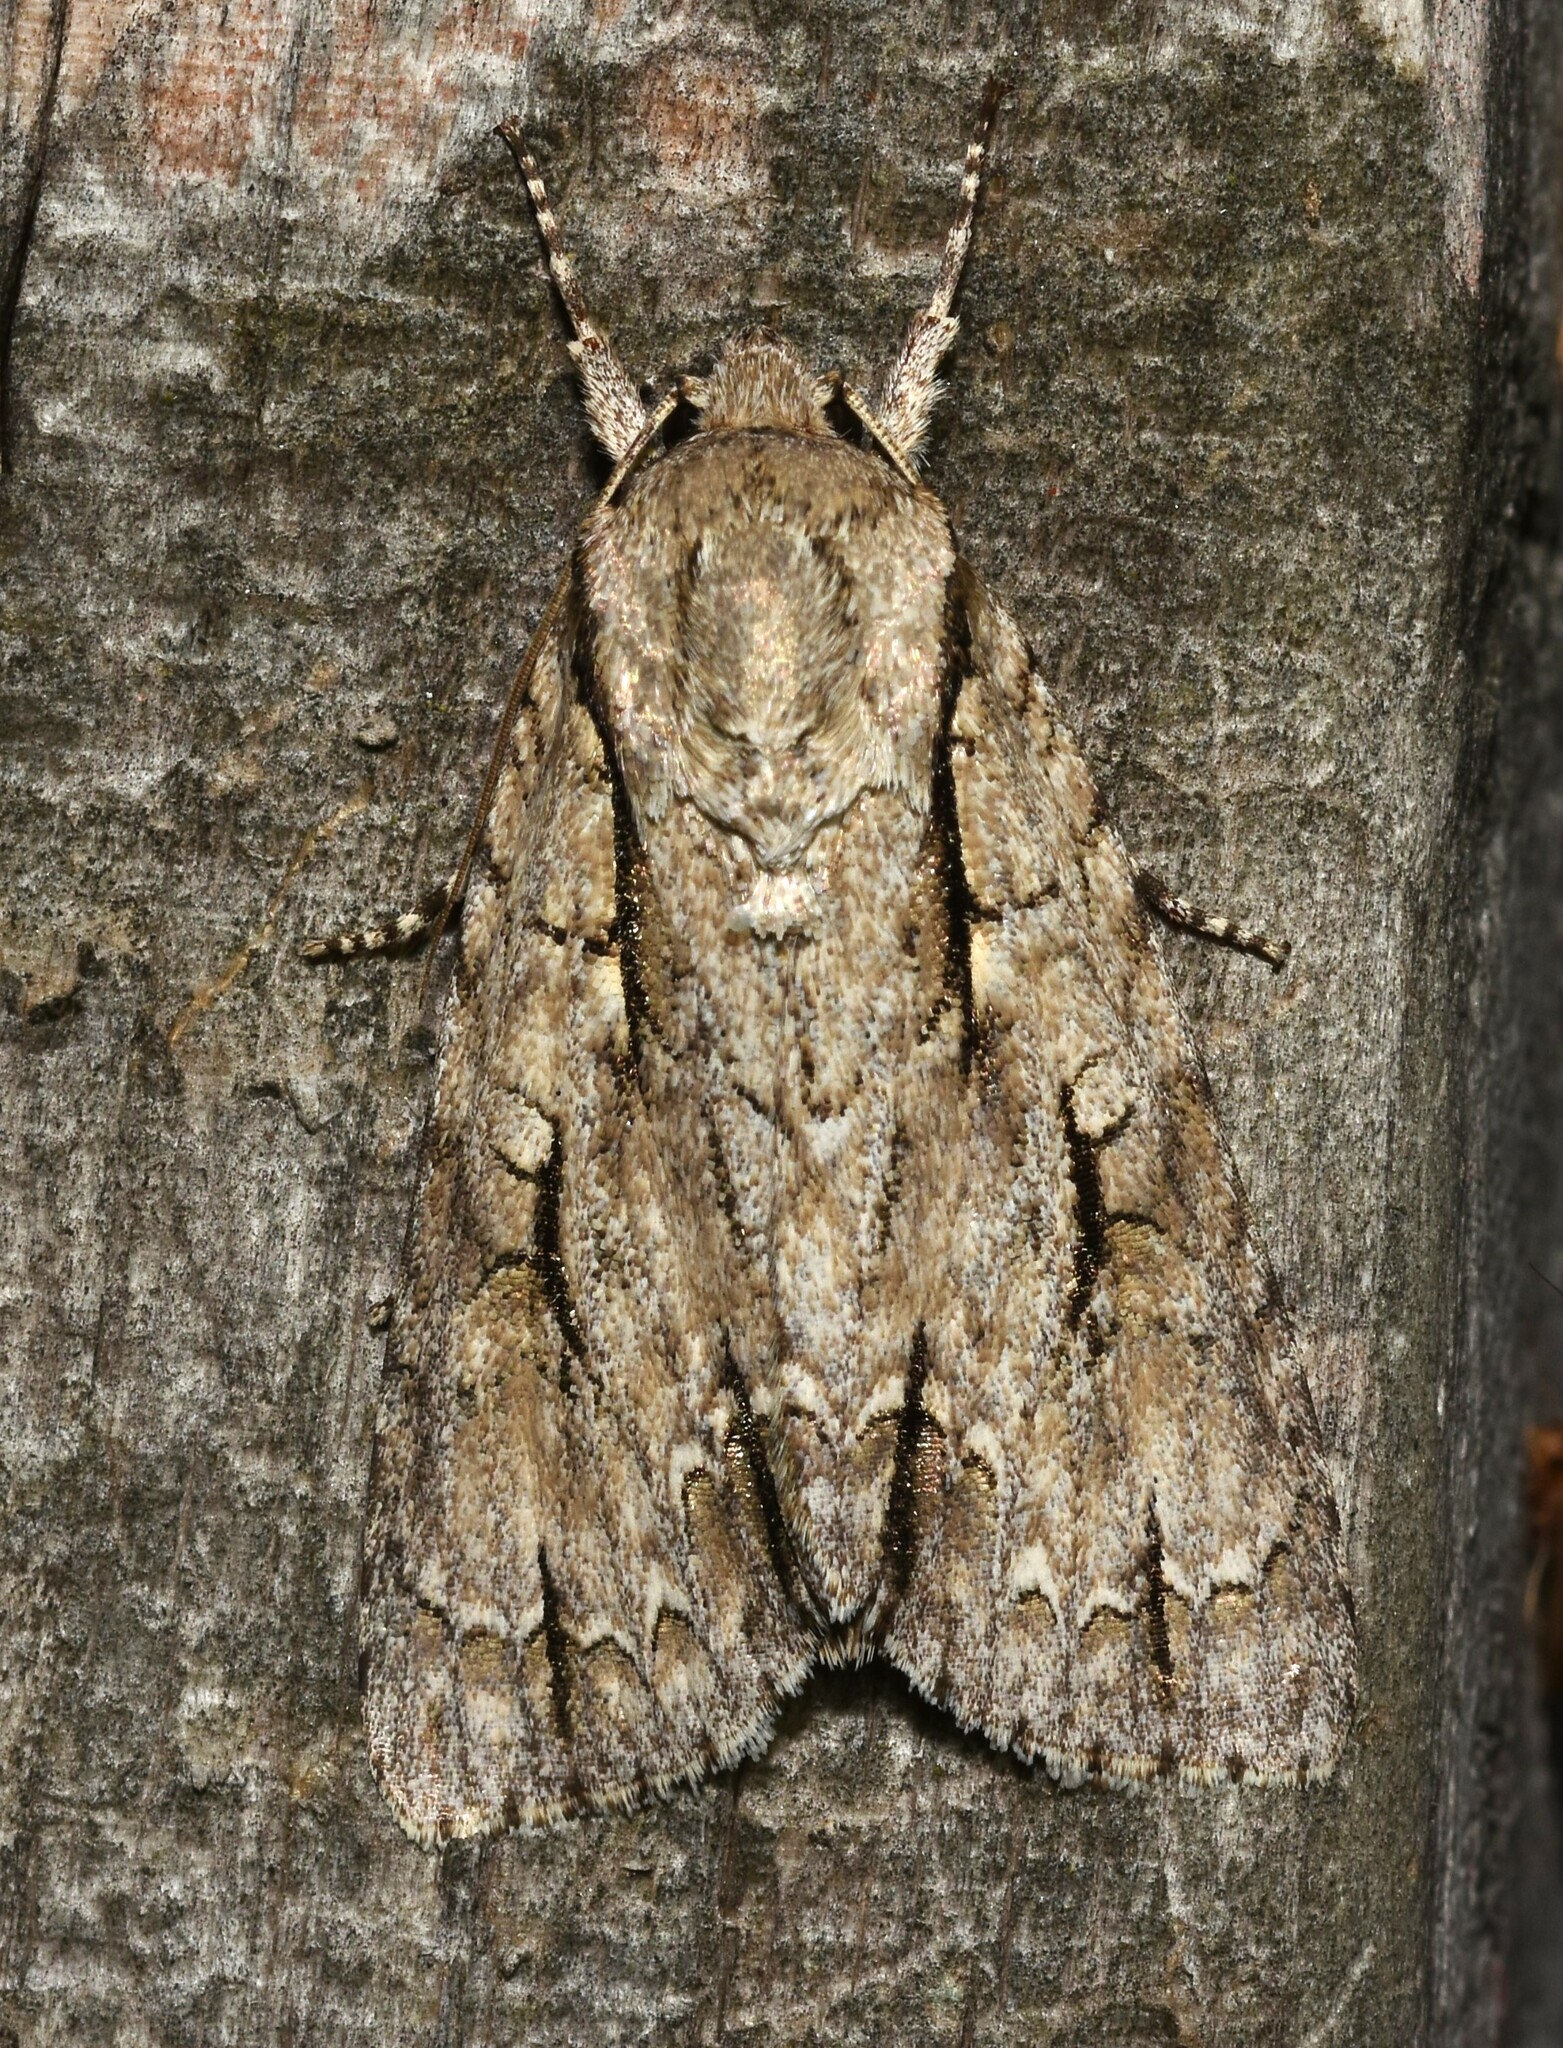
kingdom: Animalia
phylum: Arthropoda
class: Insecta
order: Lepidoptera
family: Noctuidae
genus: Acronicta
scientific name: Acronicta lobeliae
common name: Greater oak dagger
